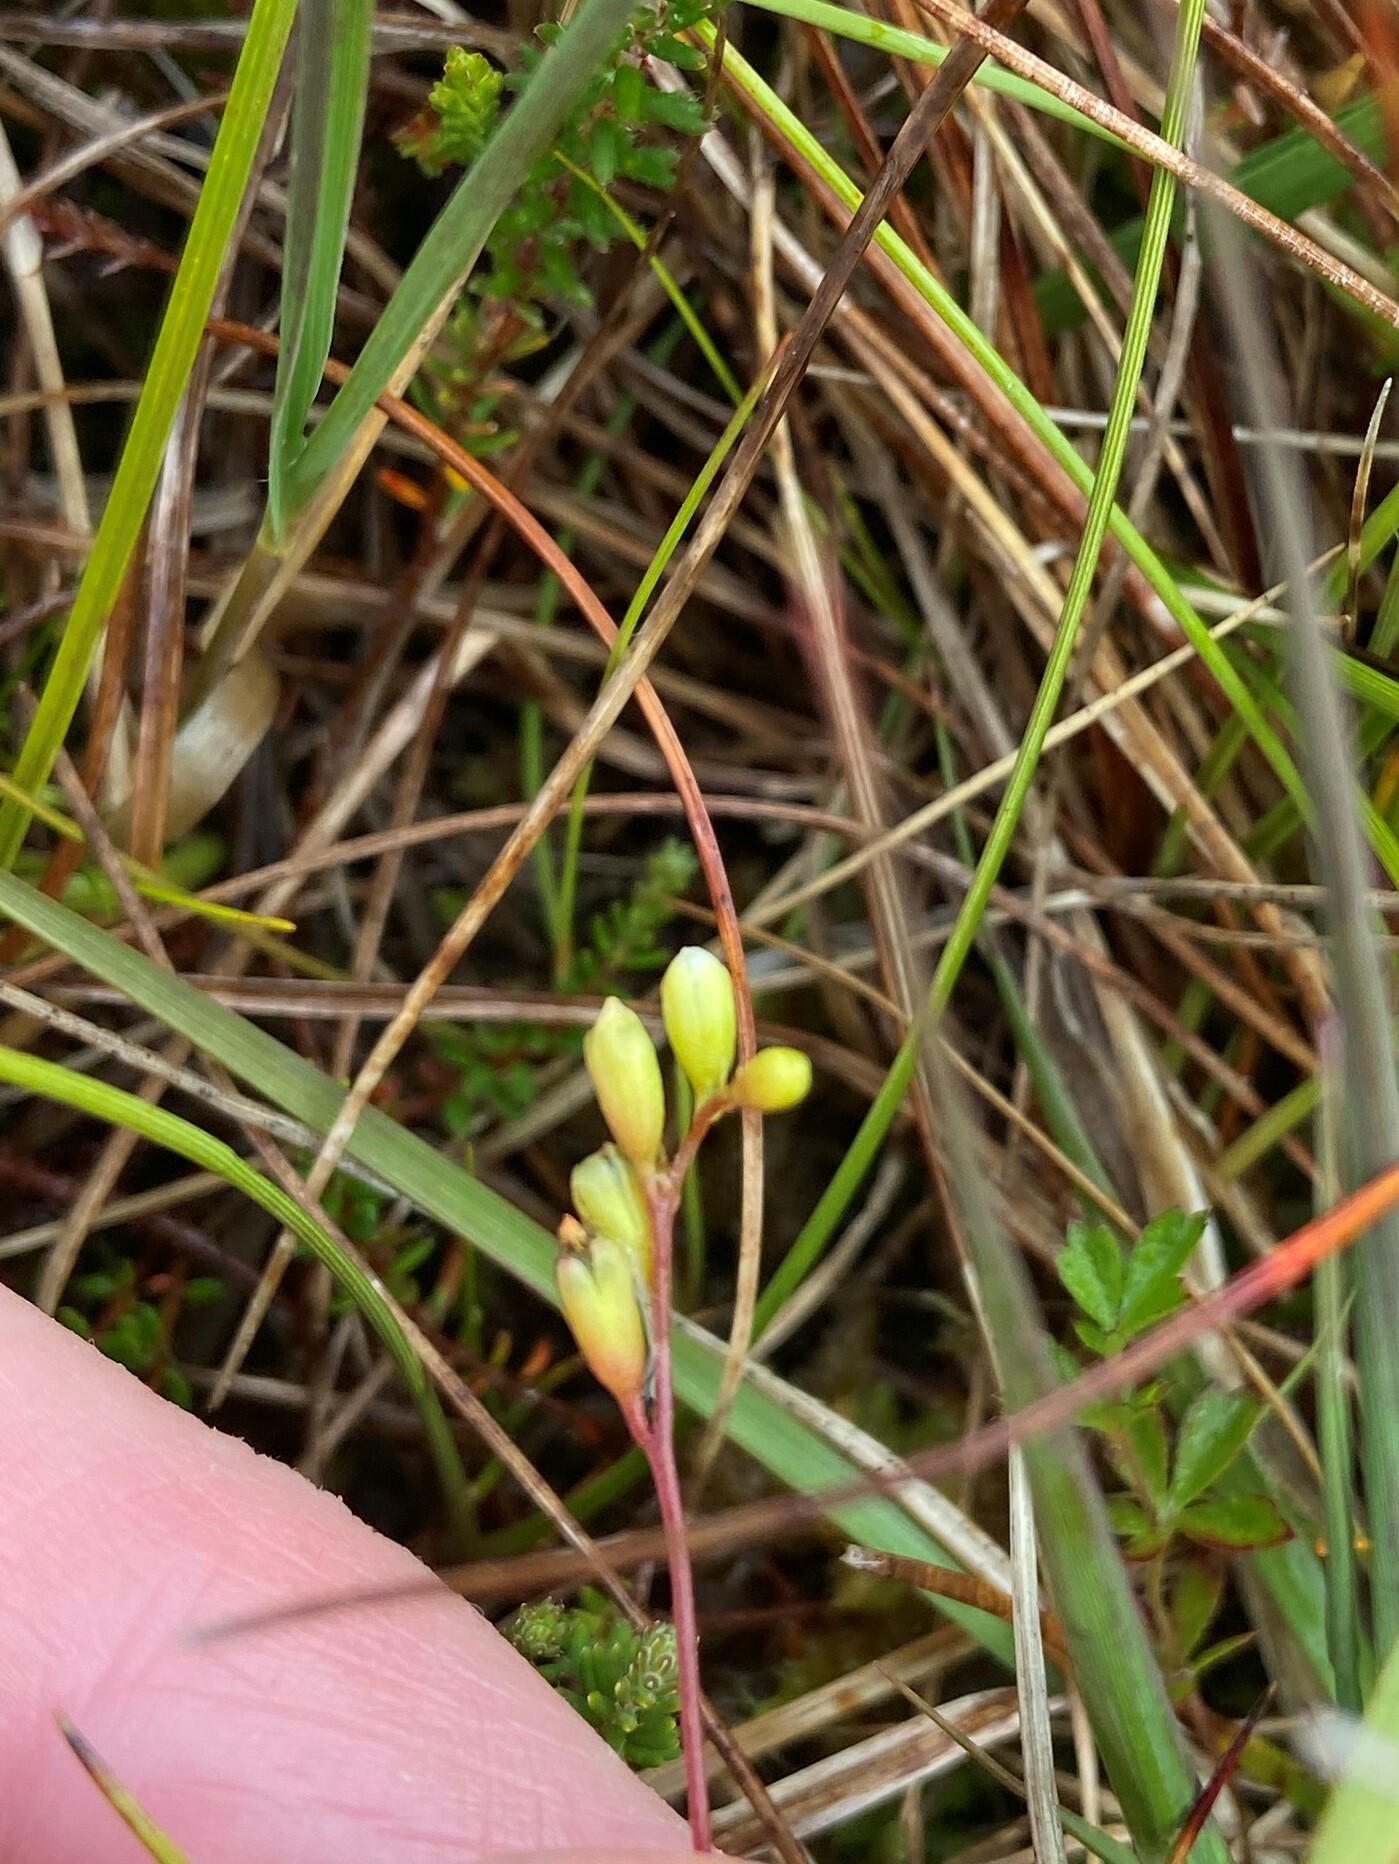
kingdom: Plantae
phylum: Tracheophyta
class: Magnoliopsida
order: Caryophyllales
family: Droseraceae
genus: Drosera
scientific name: Drosera rotundifolia
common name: Round-leaved sundew
